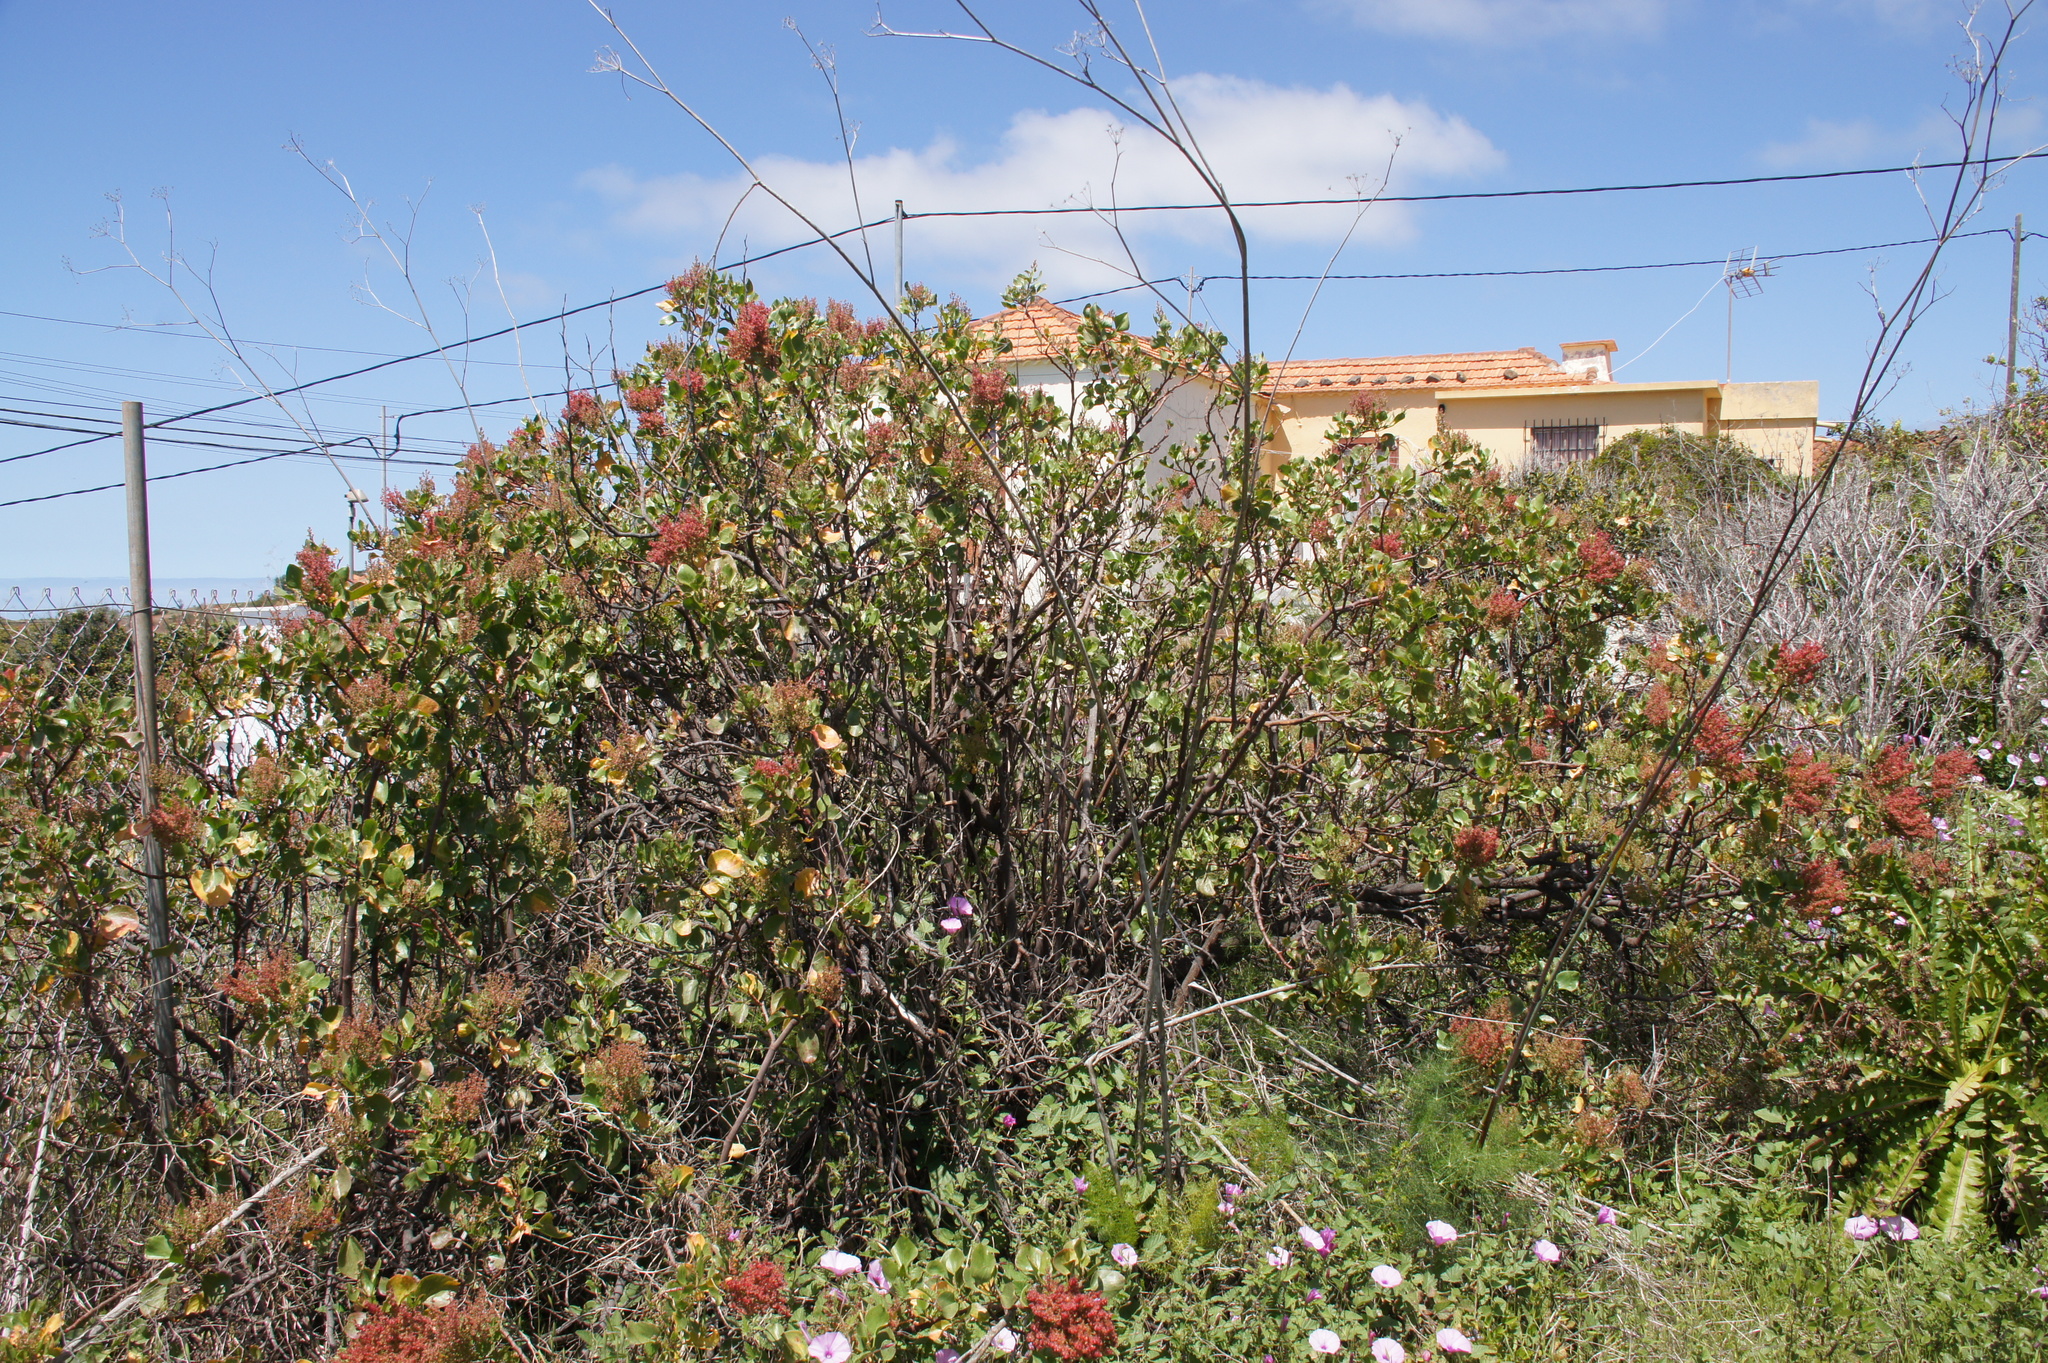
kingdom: Plantae
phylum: Tracheophyta
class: Magnoliopsida
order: Caryophyllales
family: Polygonaceae
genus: Rumex
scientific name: Rumex lunaria
